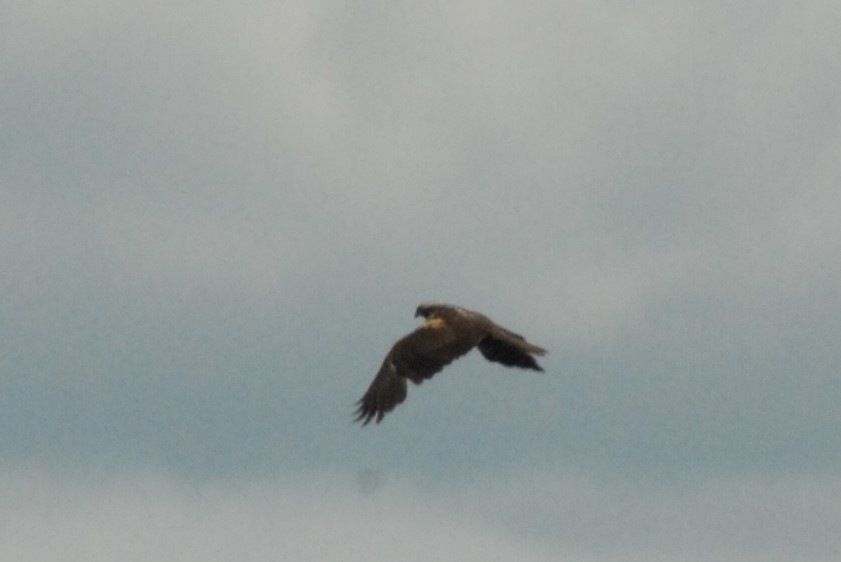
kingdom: Animalia
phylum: Chordata
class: Aves
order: Accipitriformes
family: Accipitridae
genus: Circus
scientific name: Circus aeruginosus
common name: Western marsh harrier
